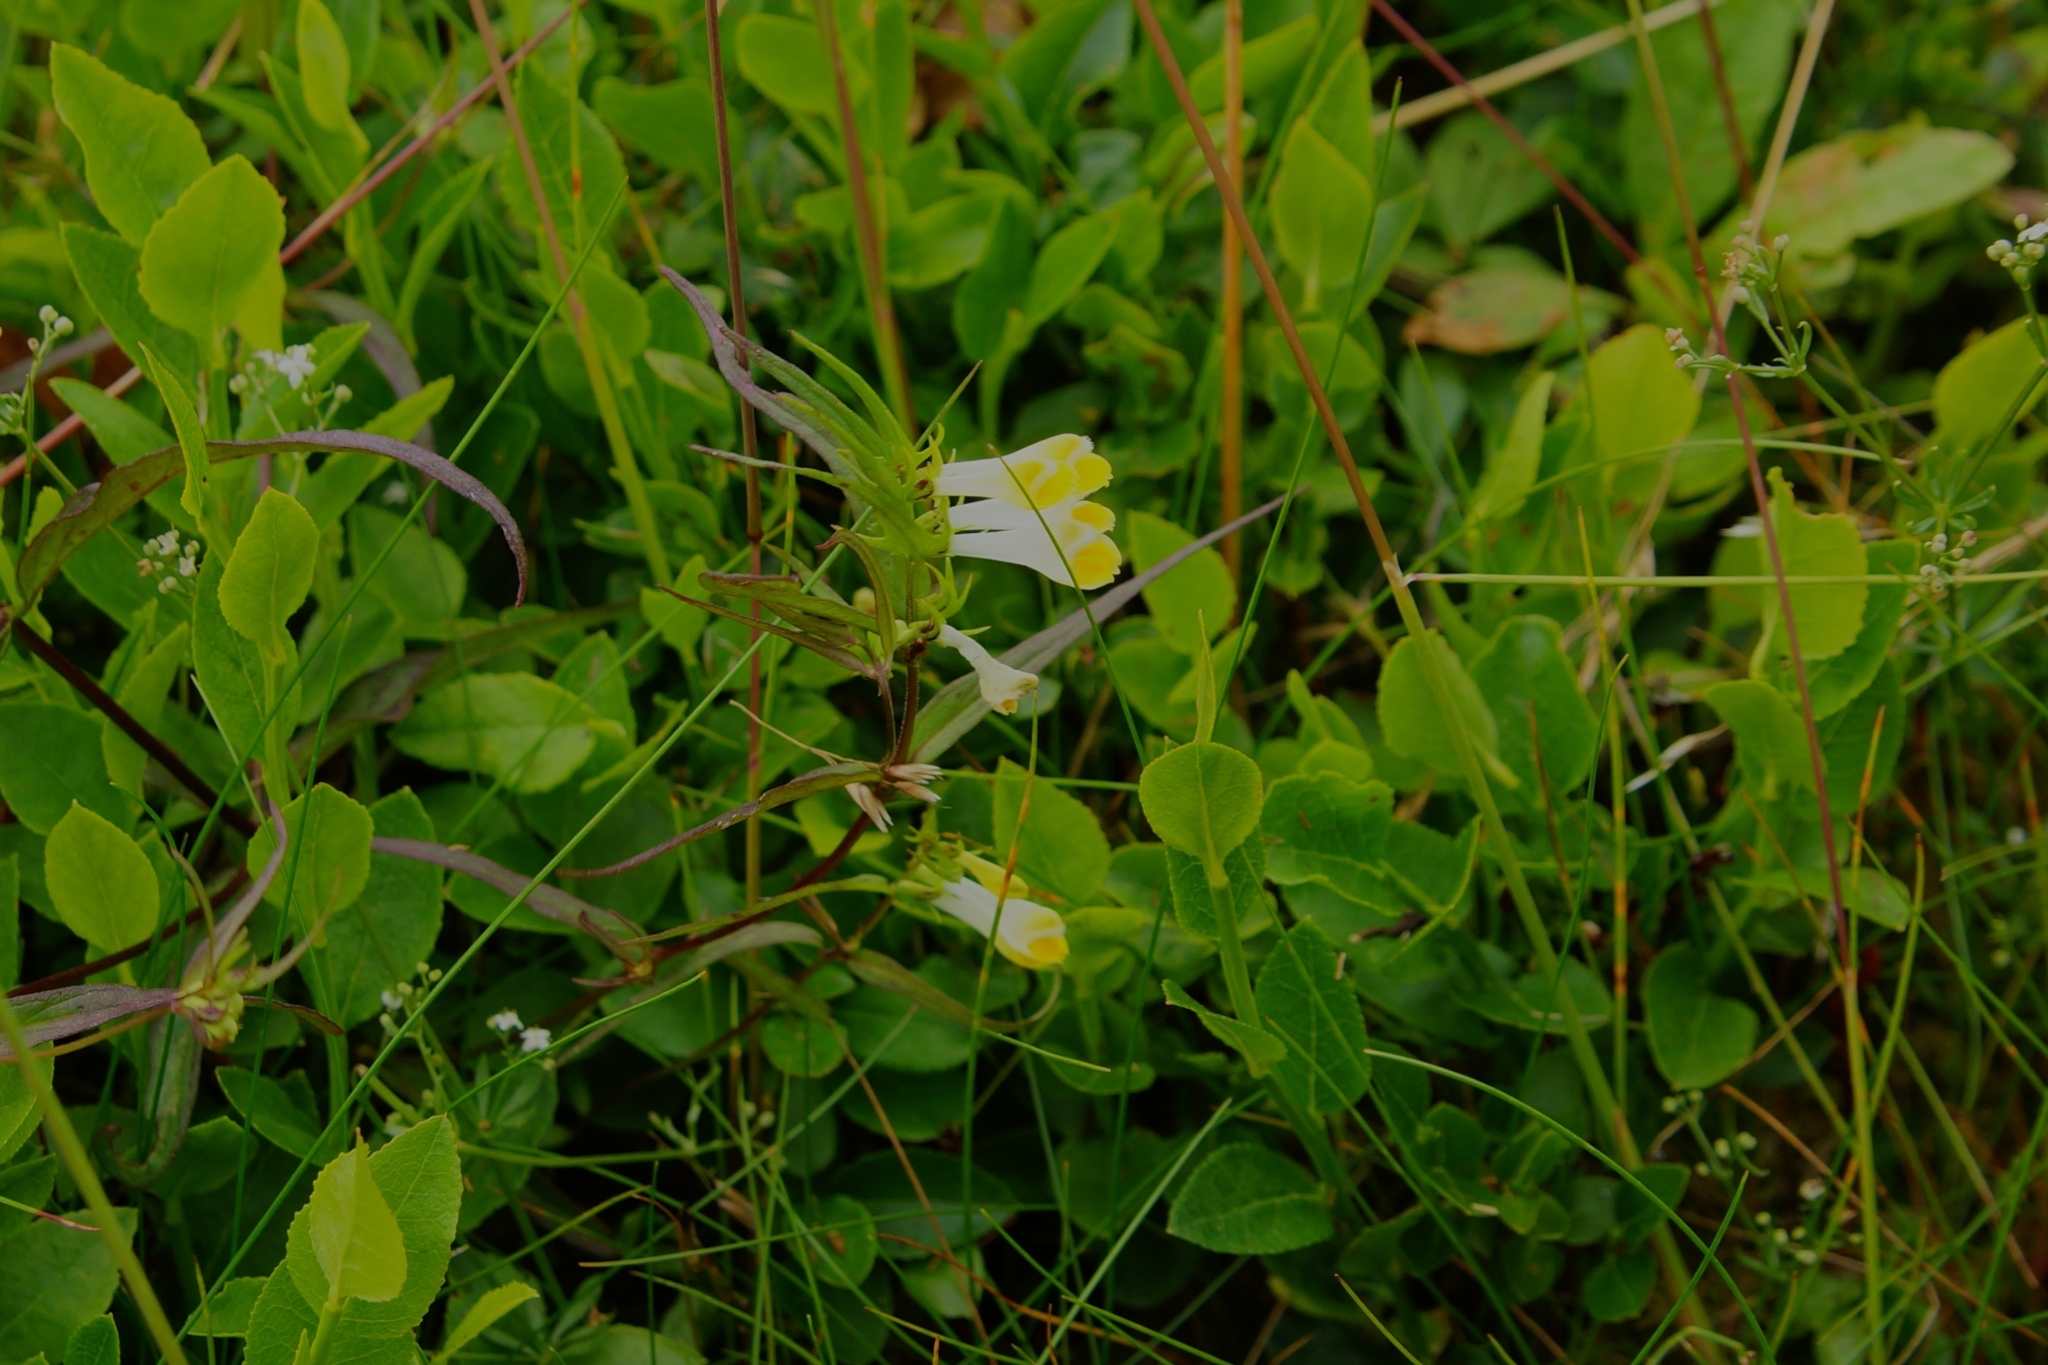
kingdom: Plantae
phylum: Tracheophyta
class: Magnoliopsida
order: Lamiales
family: Orobanchaceae
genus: Melampyrum
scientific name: Melampyrum pratense
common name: Common cow-wheat
